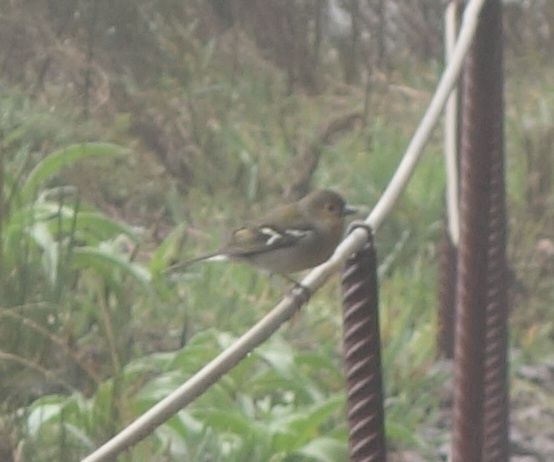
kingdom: Animalia
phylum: Chordata
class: Aves
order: Passeriformes
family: Fringillidae
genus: Fringilla
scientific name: Fringilla maderensis
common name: Madeira chaffinch
